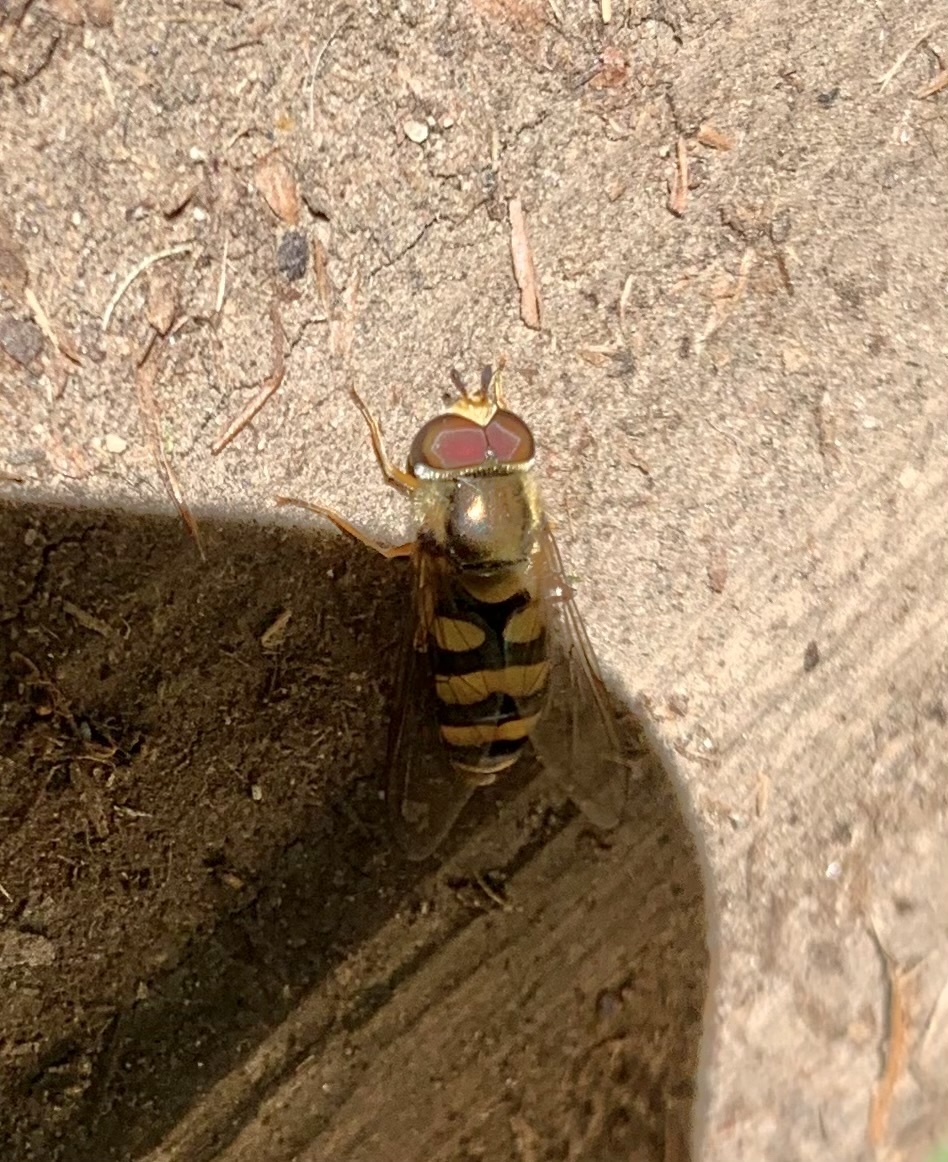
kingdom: Animalia
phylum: Arthropoda
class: Insecta
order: Diptera
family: Syrphidae
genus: Eupeodes
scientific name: Eupeodes fumipennis
